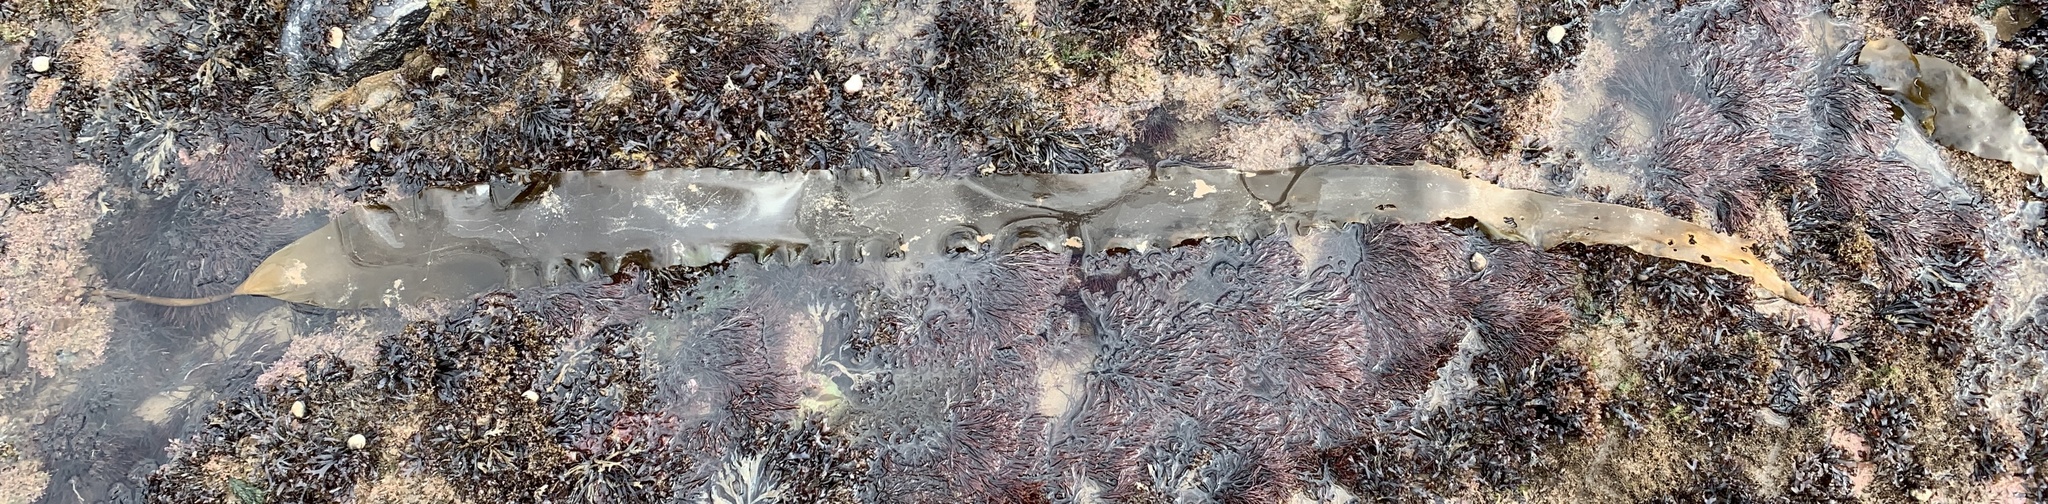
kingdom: Chromista
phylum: Ochrophyta
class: Phaeophyceae
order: Laminariales
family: Laminariaceae
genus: Saccharina
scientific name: Saccharina latissima
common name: Poor man's weather glass
